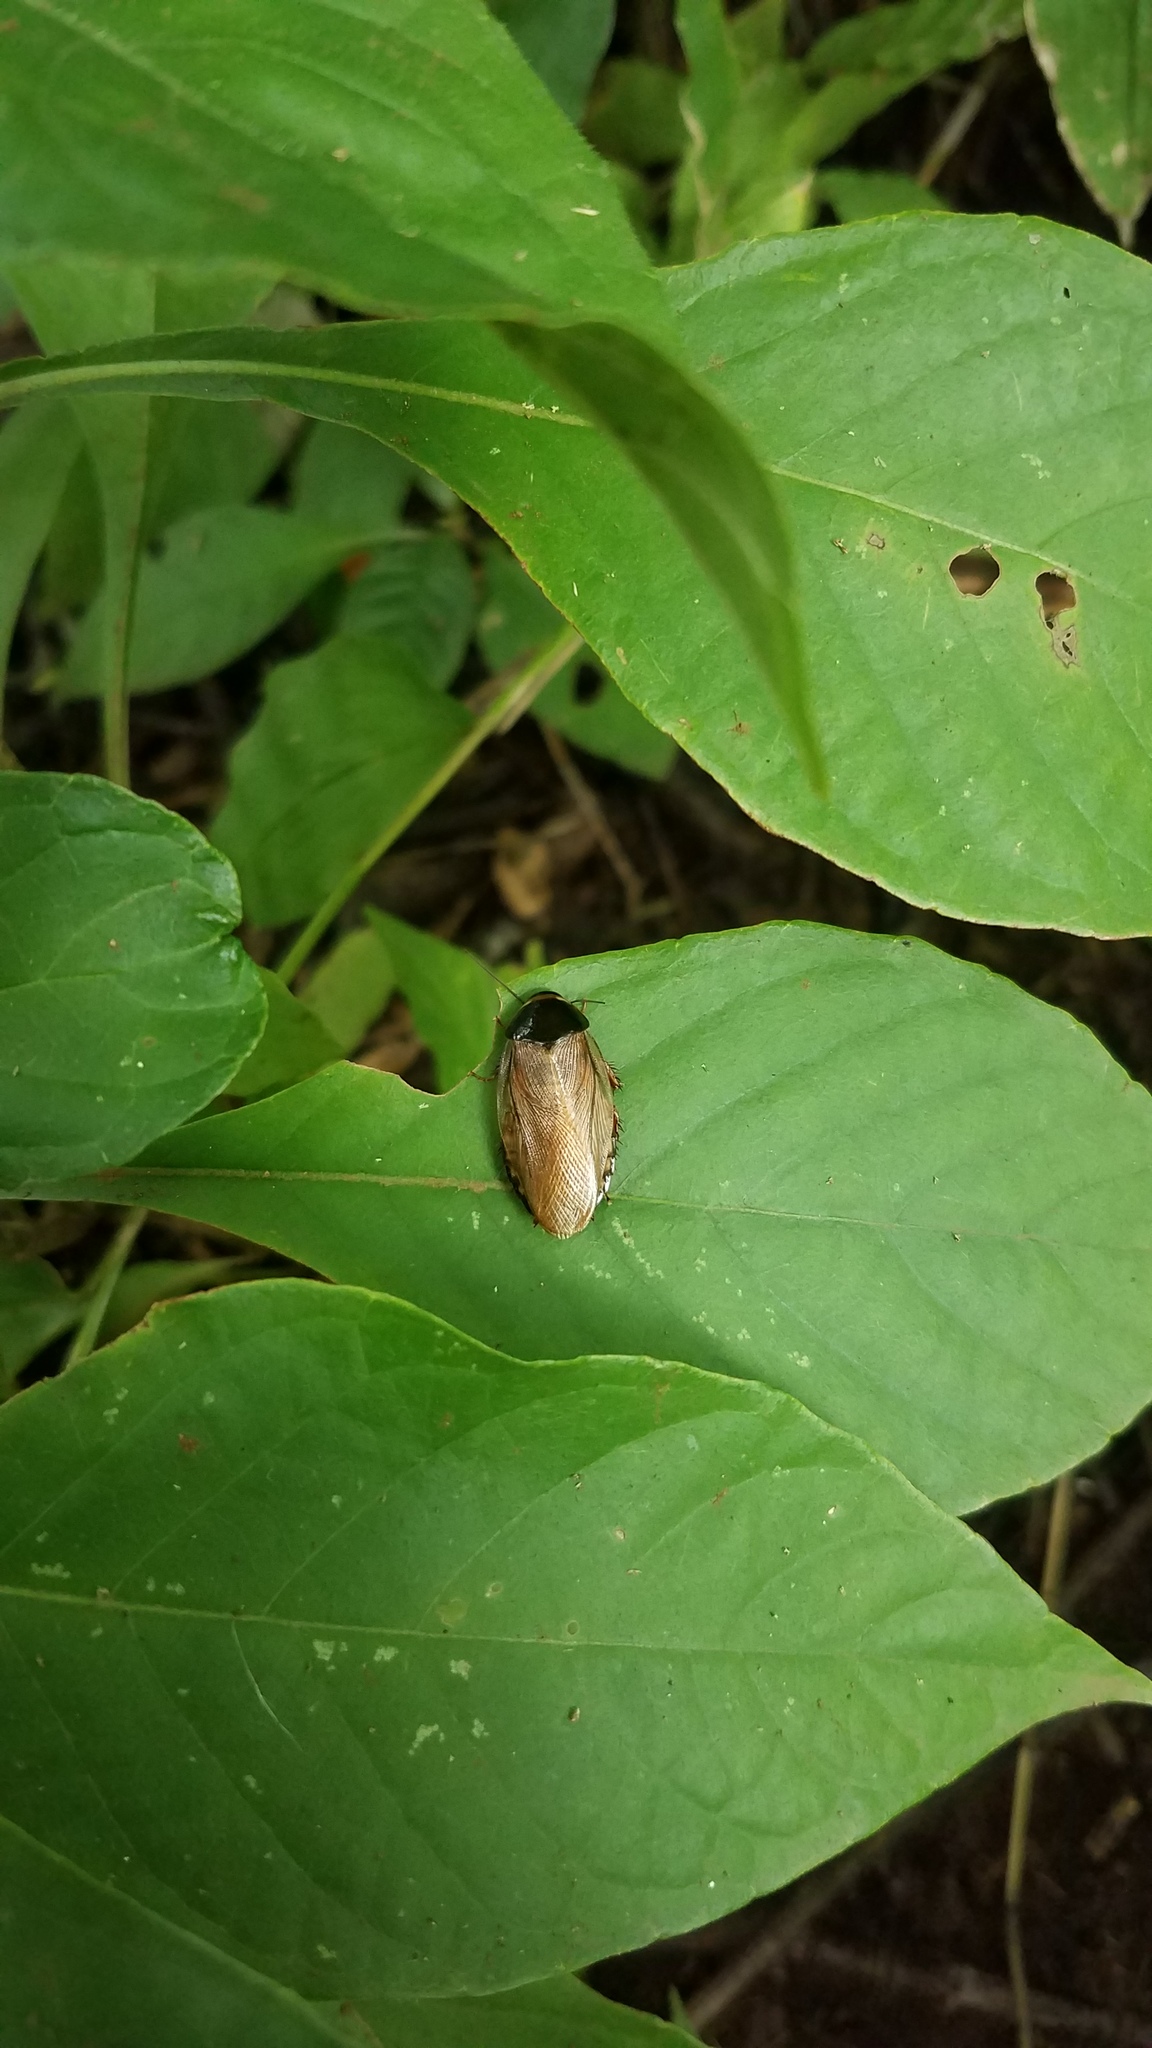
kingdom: Animalia
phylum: Arthropoda
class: Insecta
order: Blattodea
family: Blaberidae
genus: Pycnoscelus
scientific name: Pycnoscelus surinamensis
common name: Surinam cockroach
